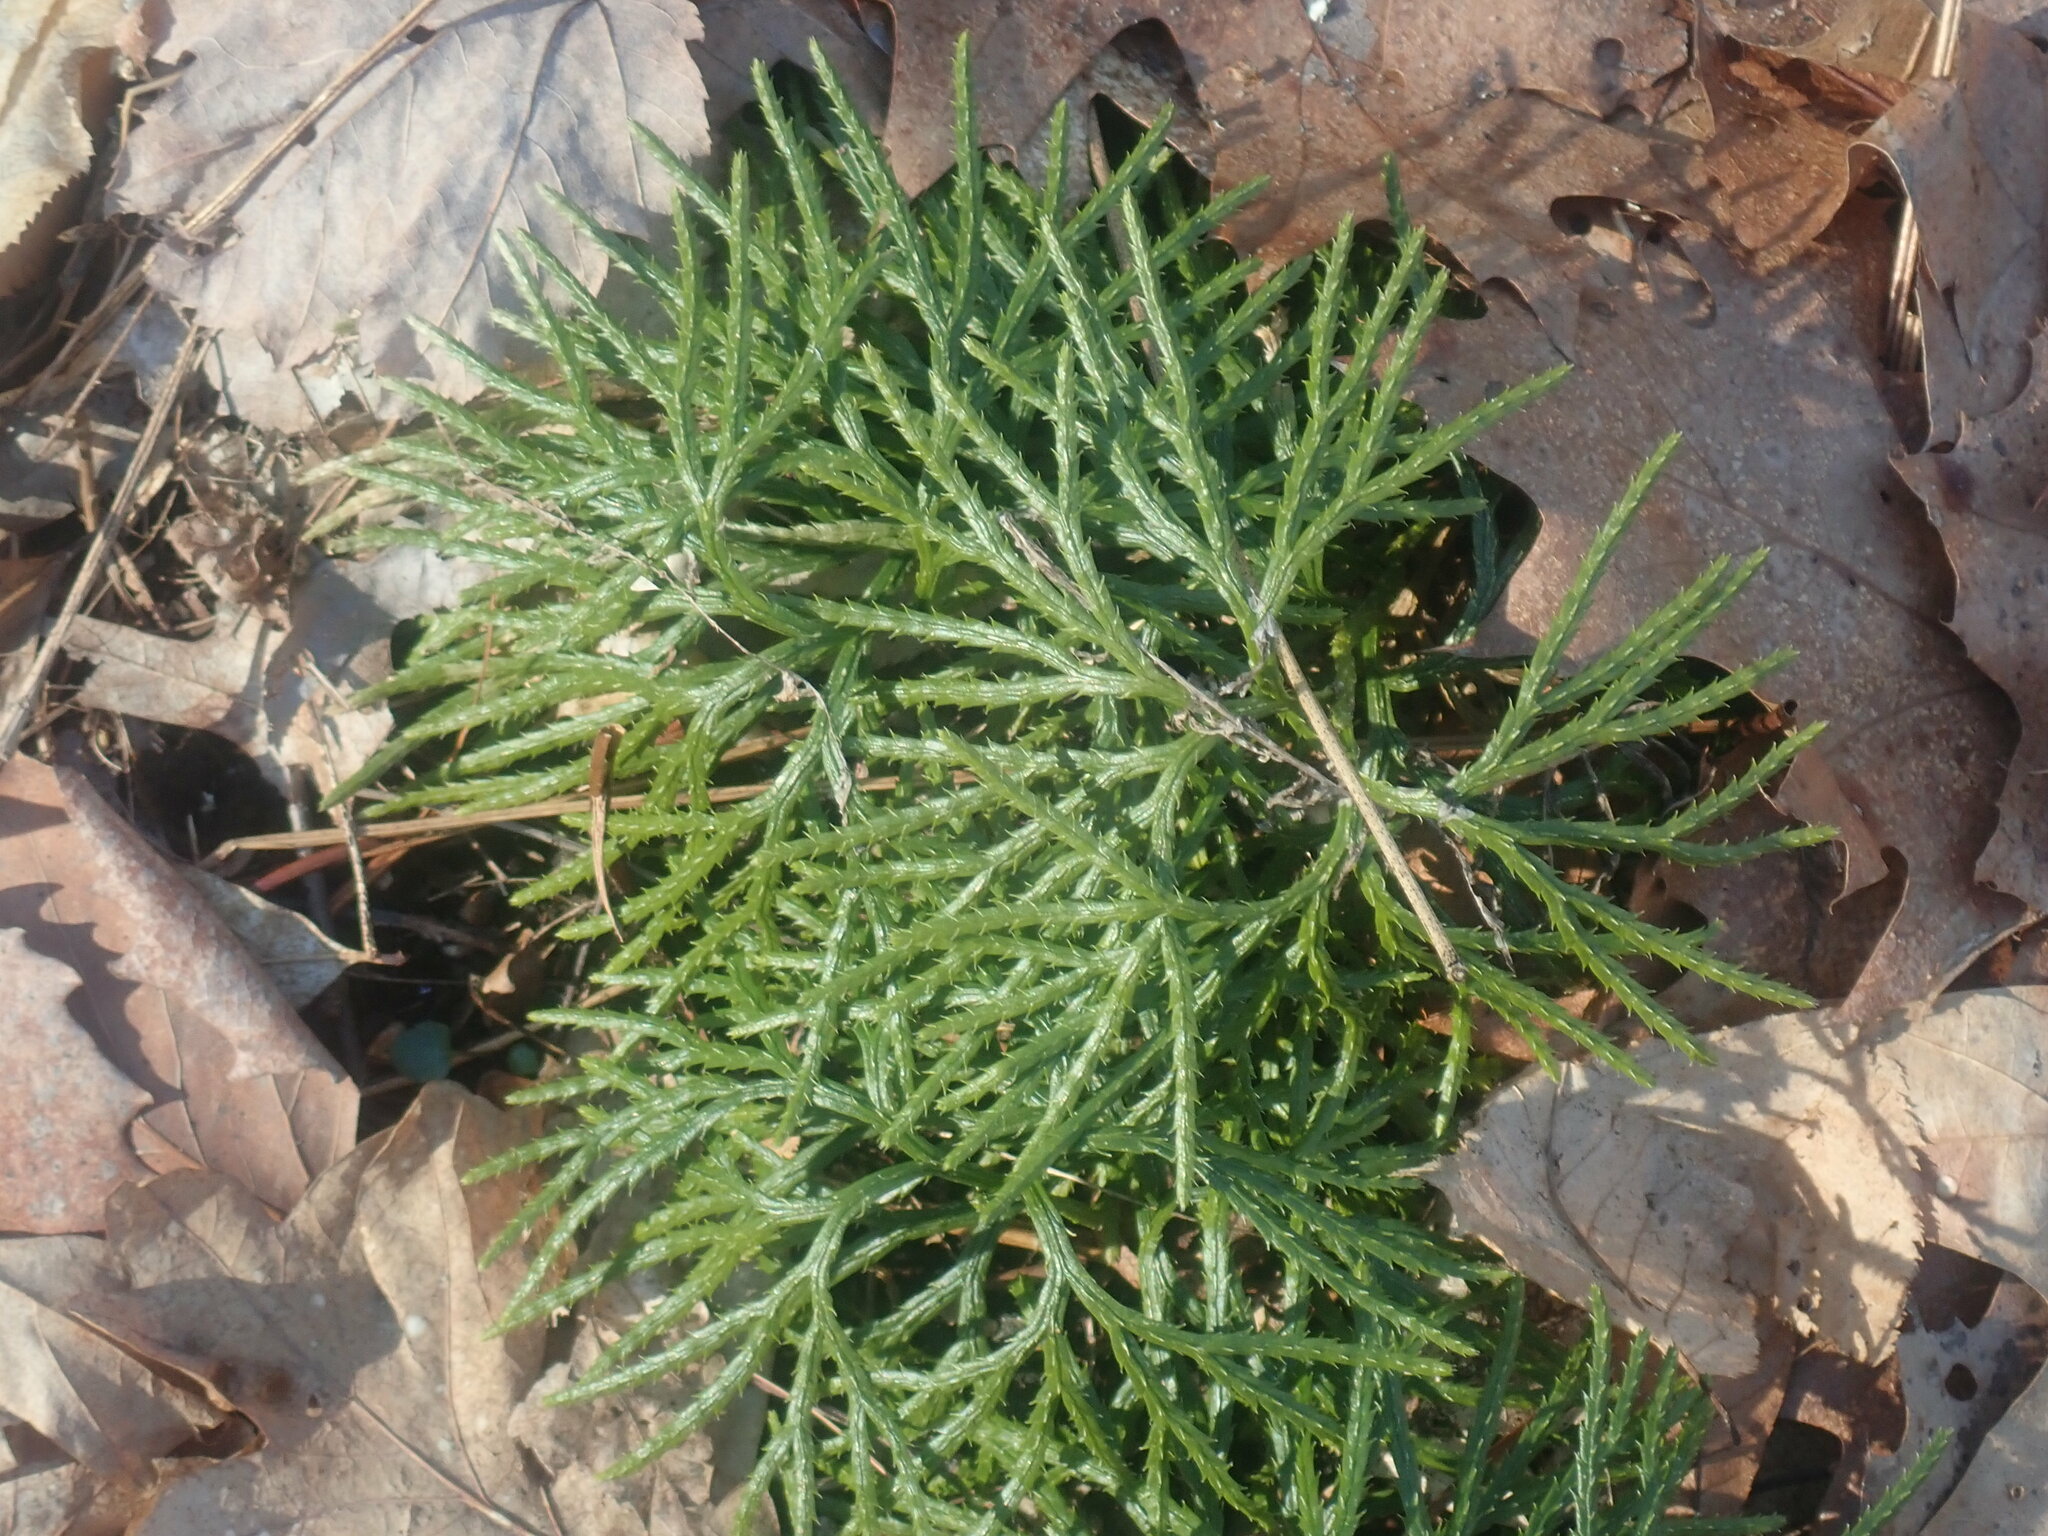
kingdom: Plantae
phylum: Tracheophyta
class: Lycopodiopsida
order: Lycopodiales
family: Lycopodiaceae
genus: Diphasiastrum
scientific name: Diphasiastrum digitatum
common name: Southern running-pine
